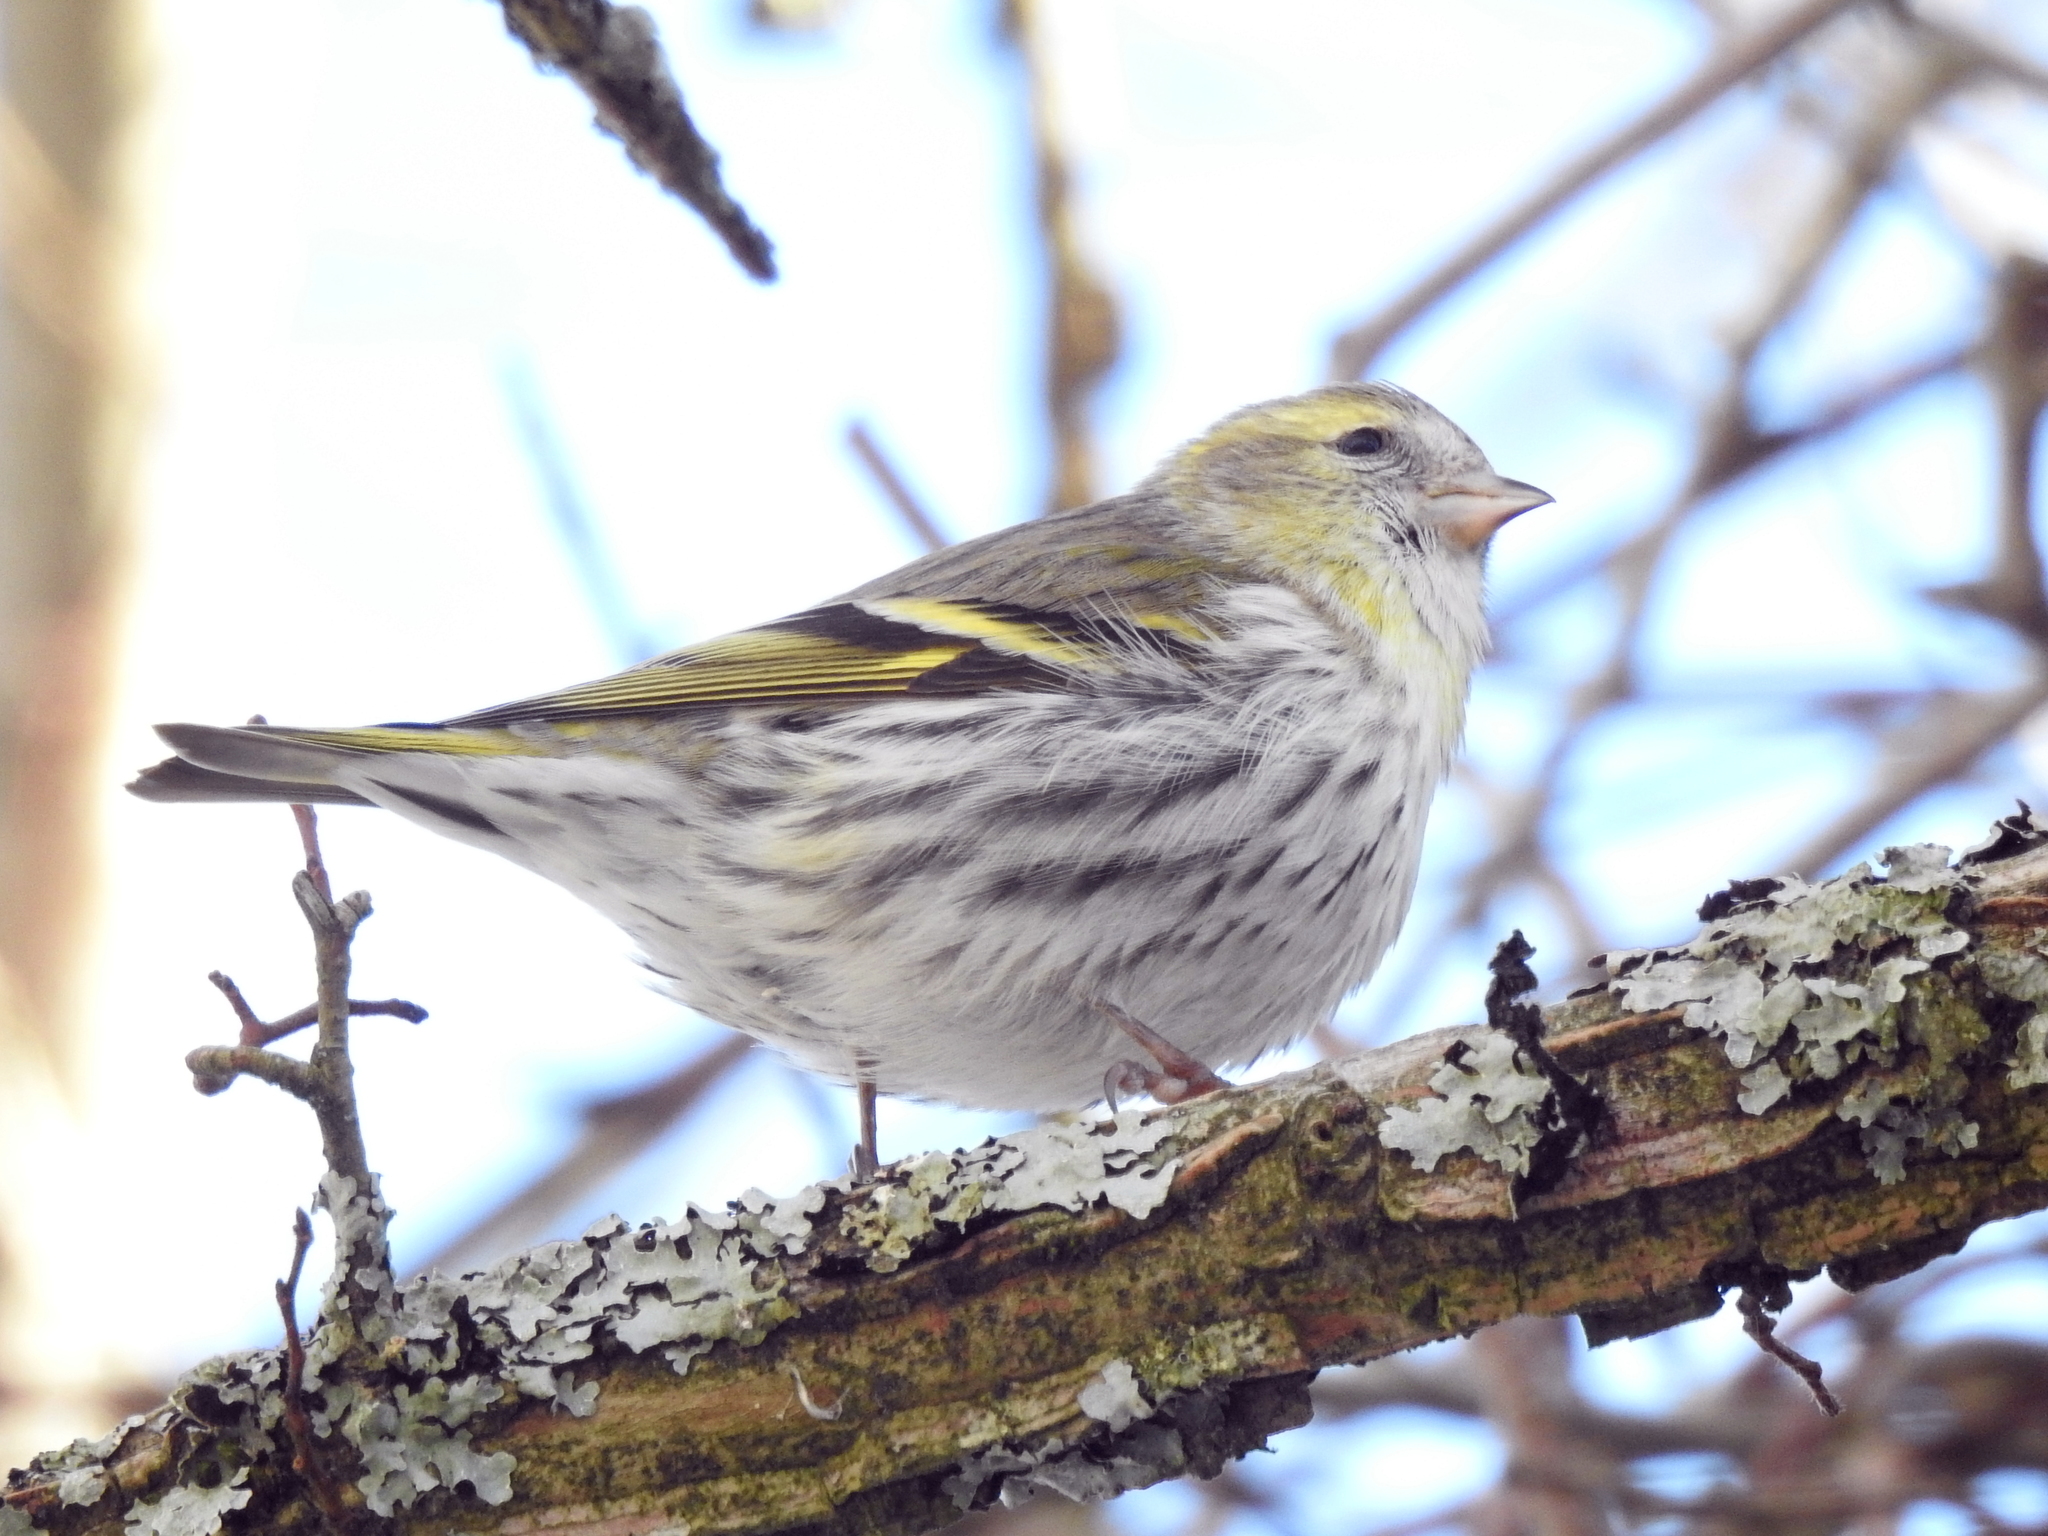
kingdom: Animalia
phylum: Chordata
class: Aves
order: Passeriformes
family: Fringillidae
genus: Spinus
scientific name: Spinus spinus
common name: Eurasian siskin
